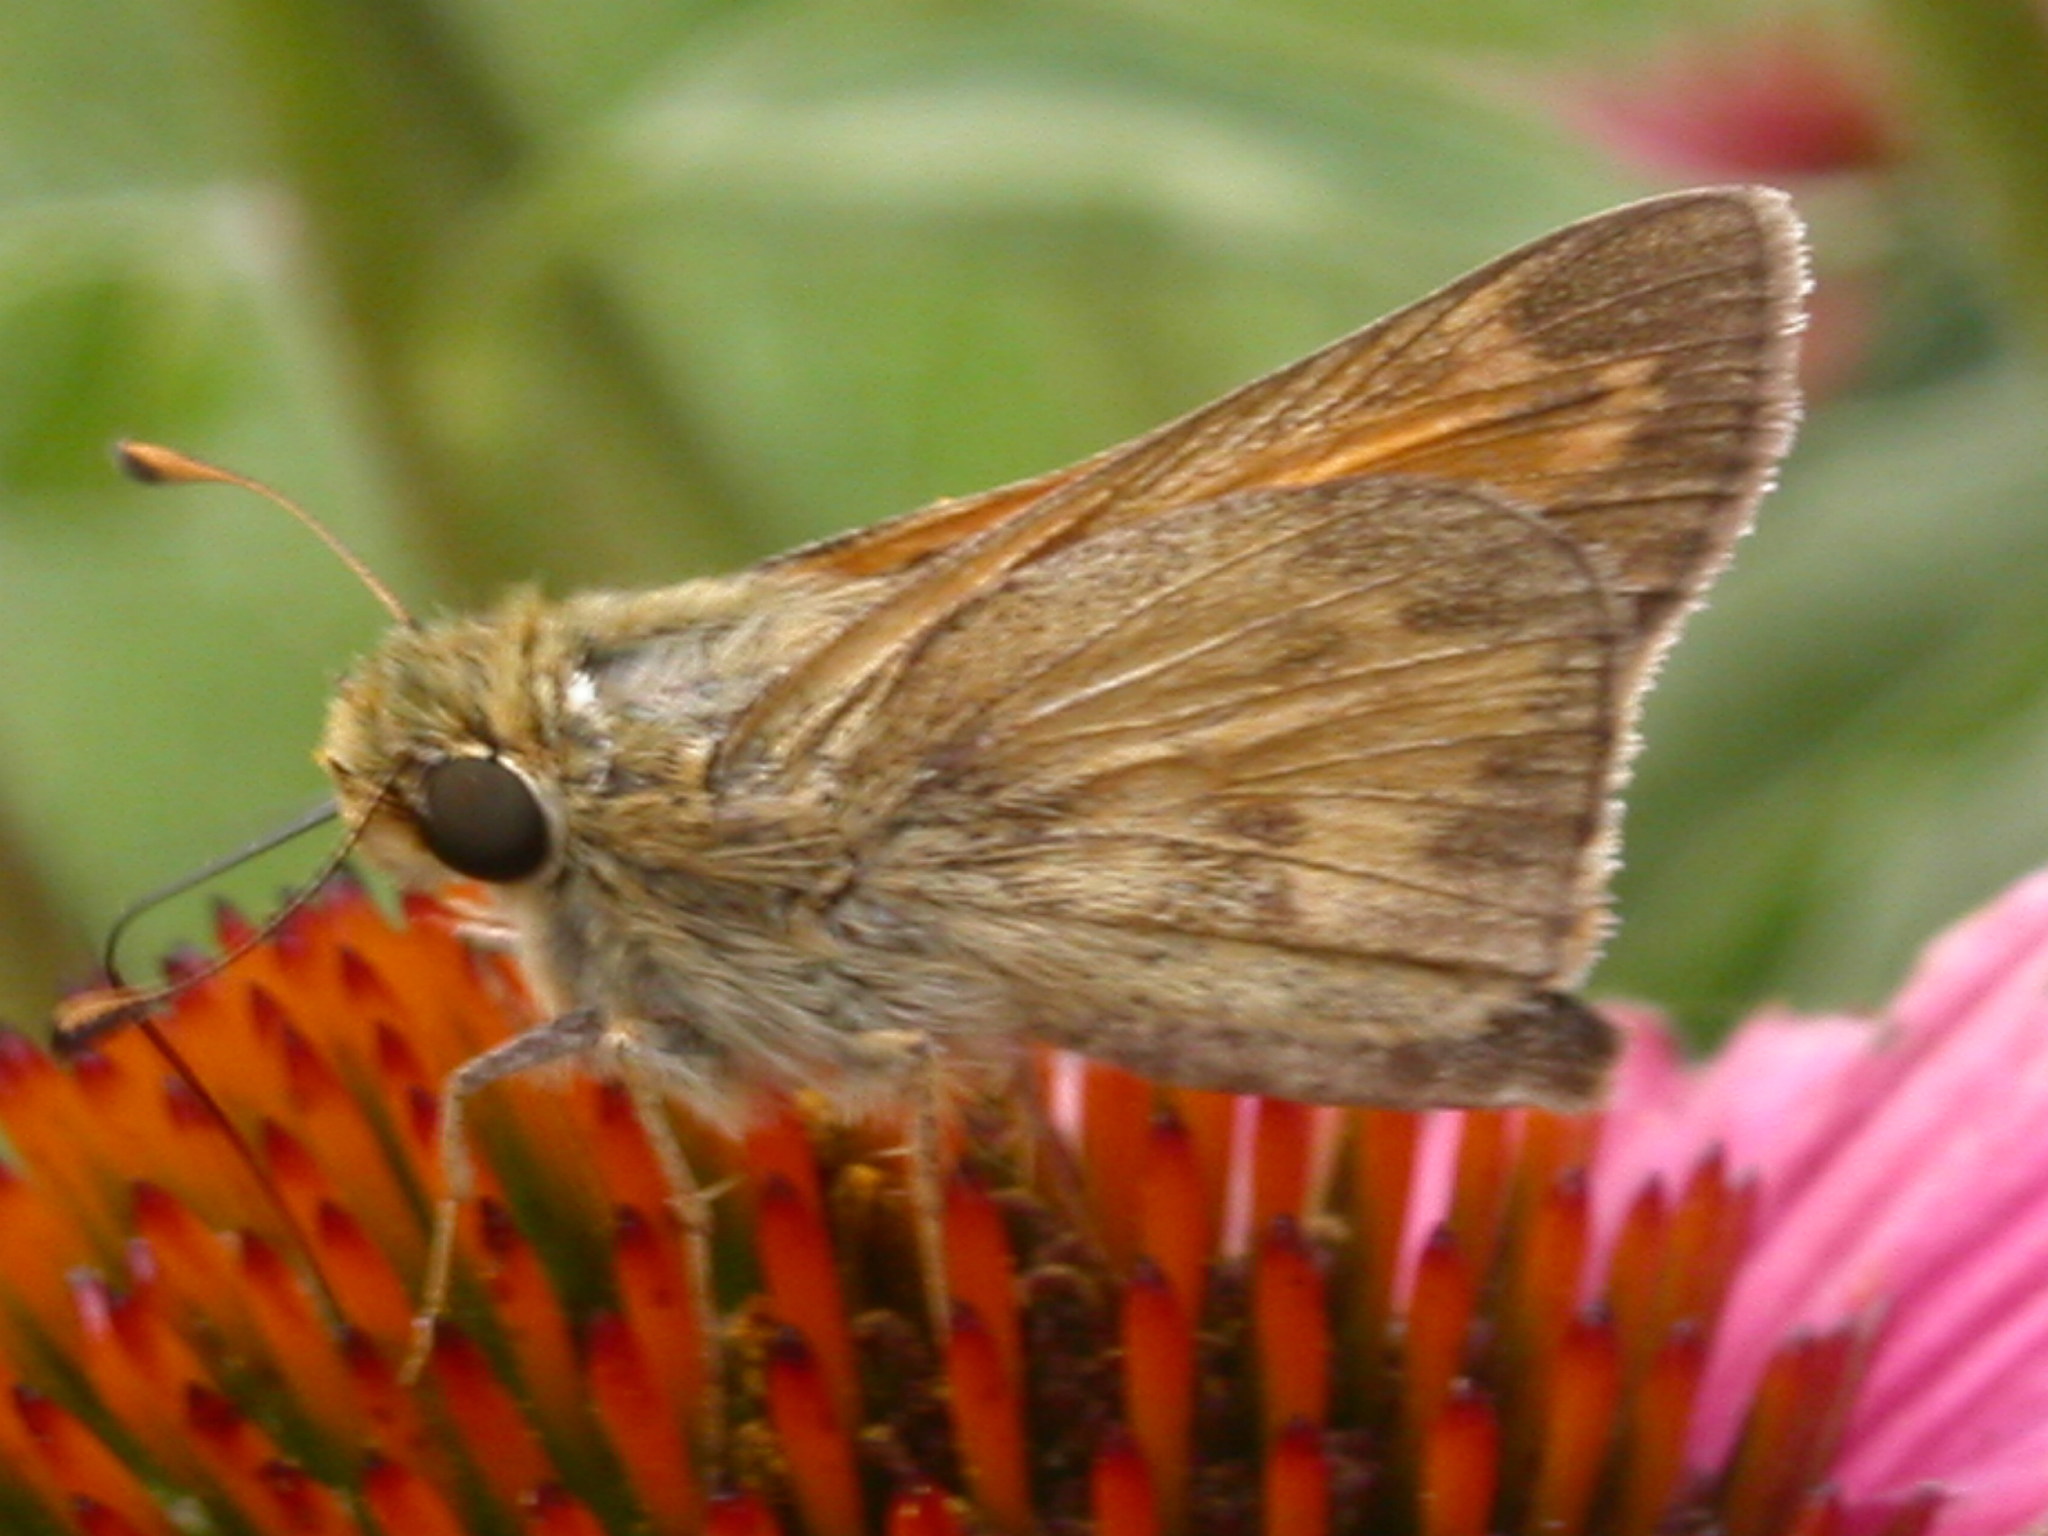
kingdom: Animalia
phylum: Arthropoda
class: Insecta
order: Lepidoptera
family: Hesperiidae
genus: Atalopedes
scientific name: Atalopedes
